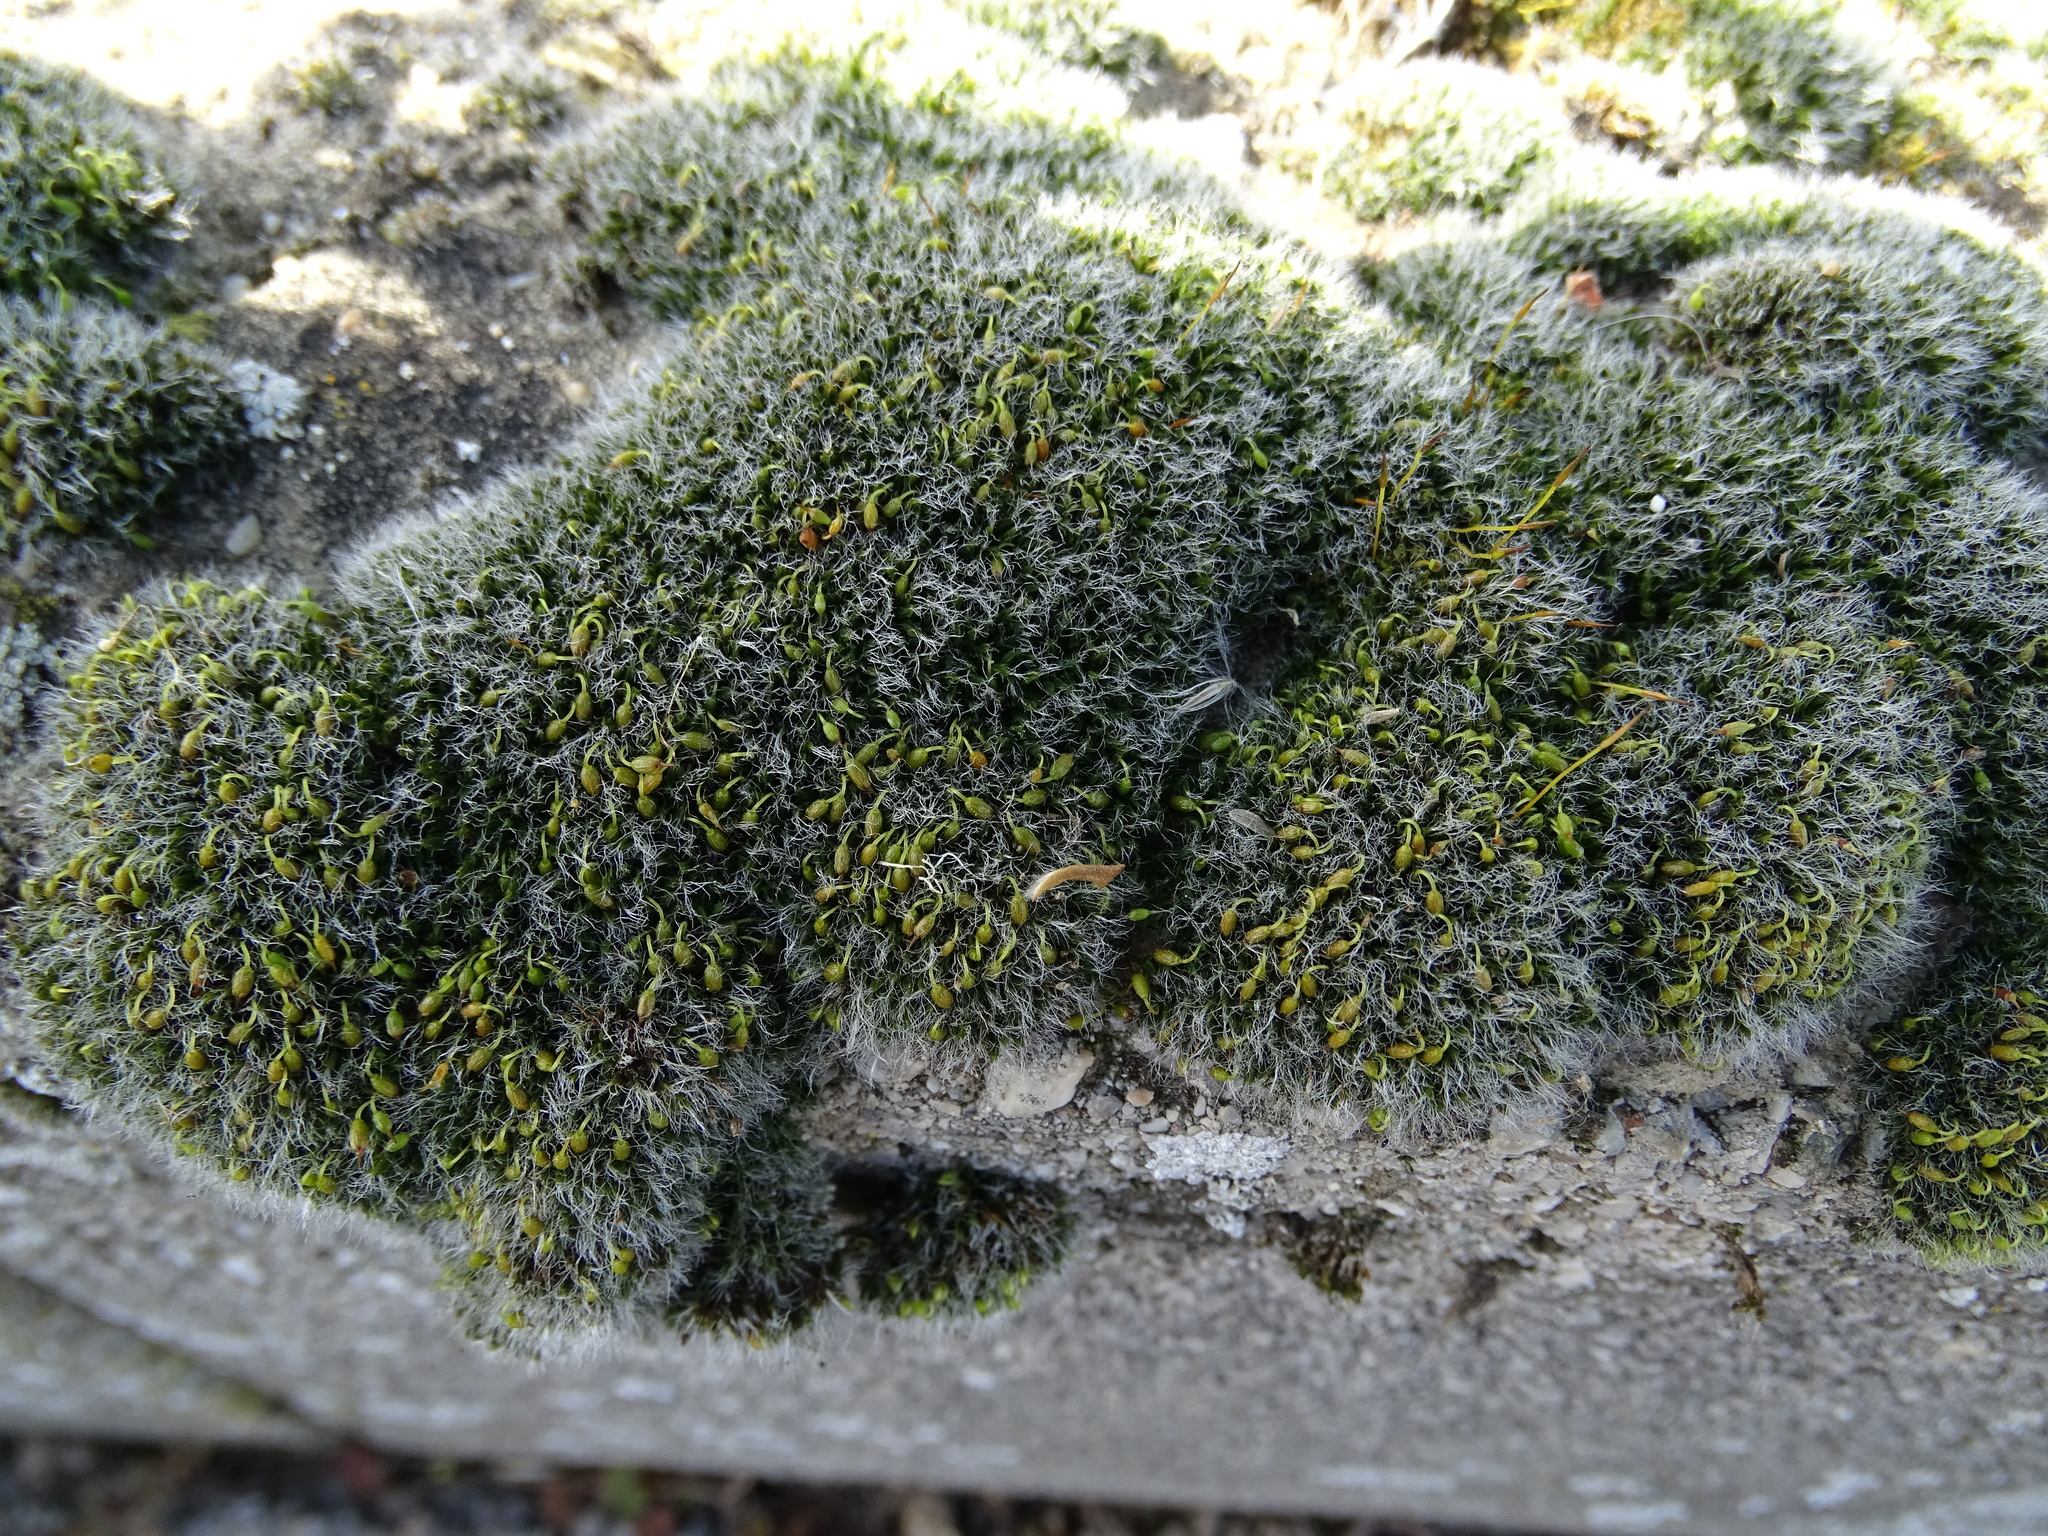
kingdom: Plantae
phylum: Bryophyta
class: Bryopsida
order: Grimmiales
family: Grimmiaceae
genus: Grimmia
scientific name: Grimmia pulvinata
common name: Grey-cushioned grimmia
